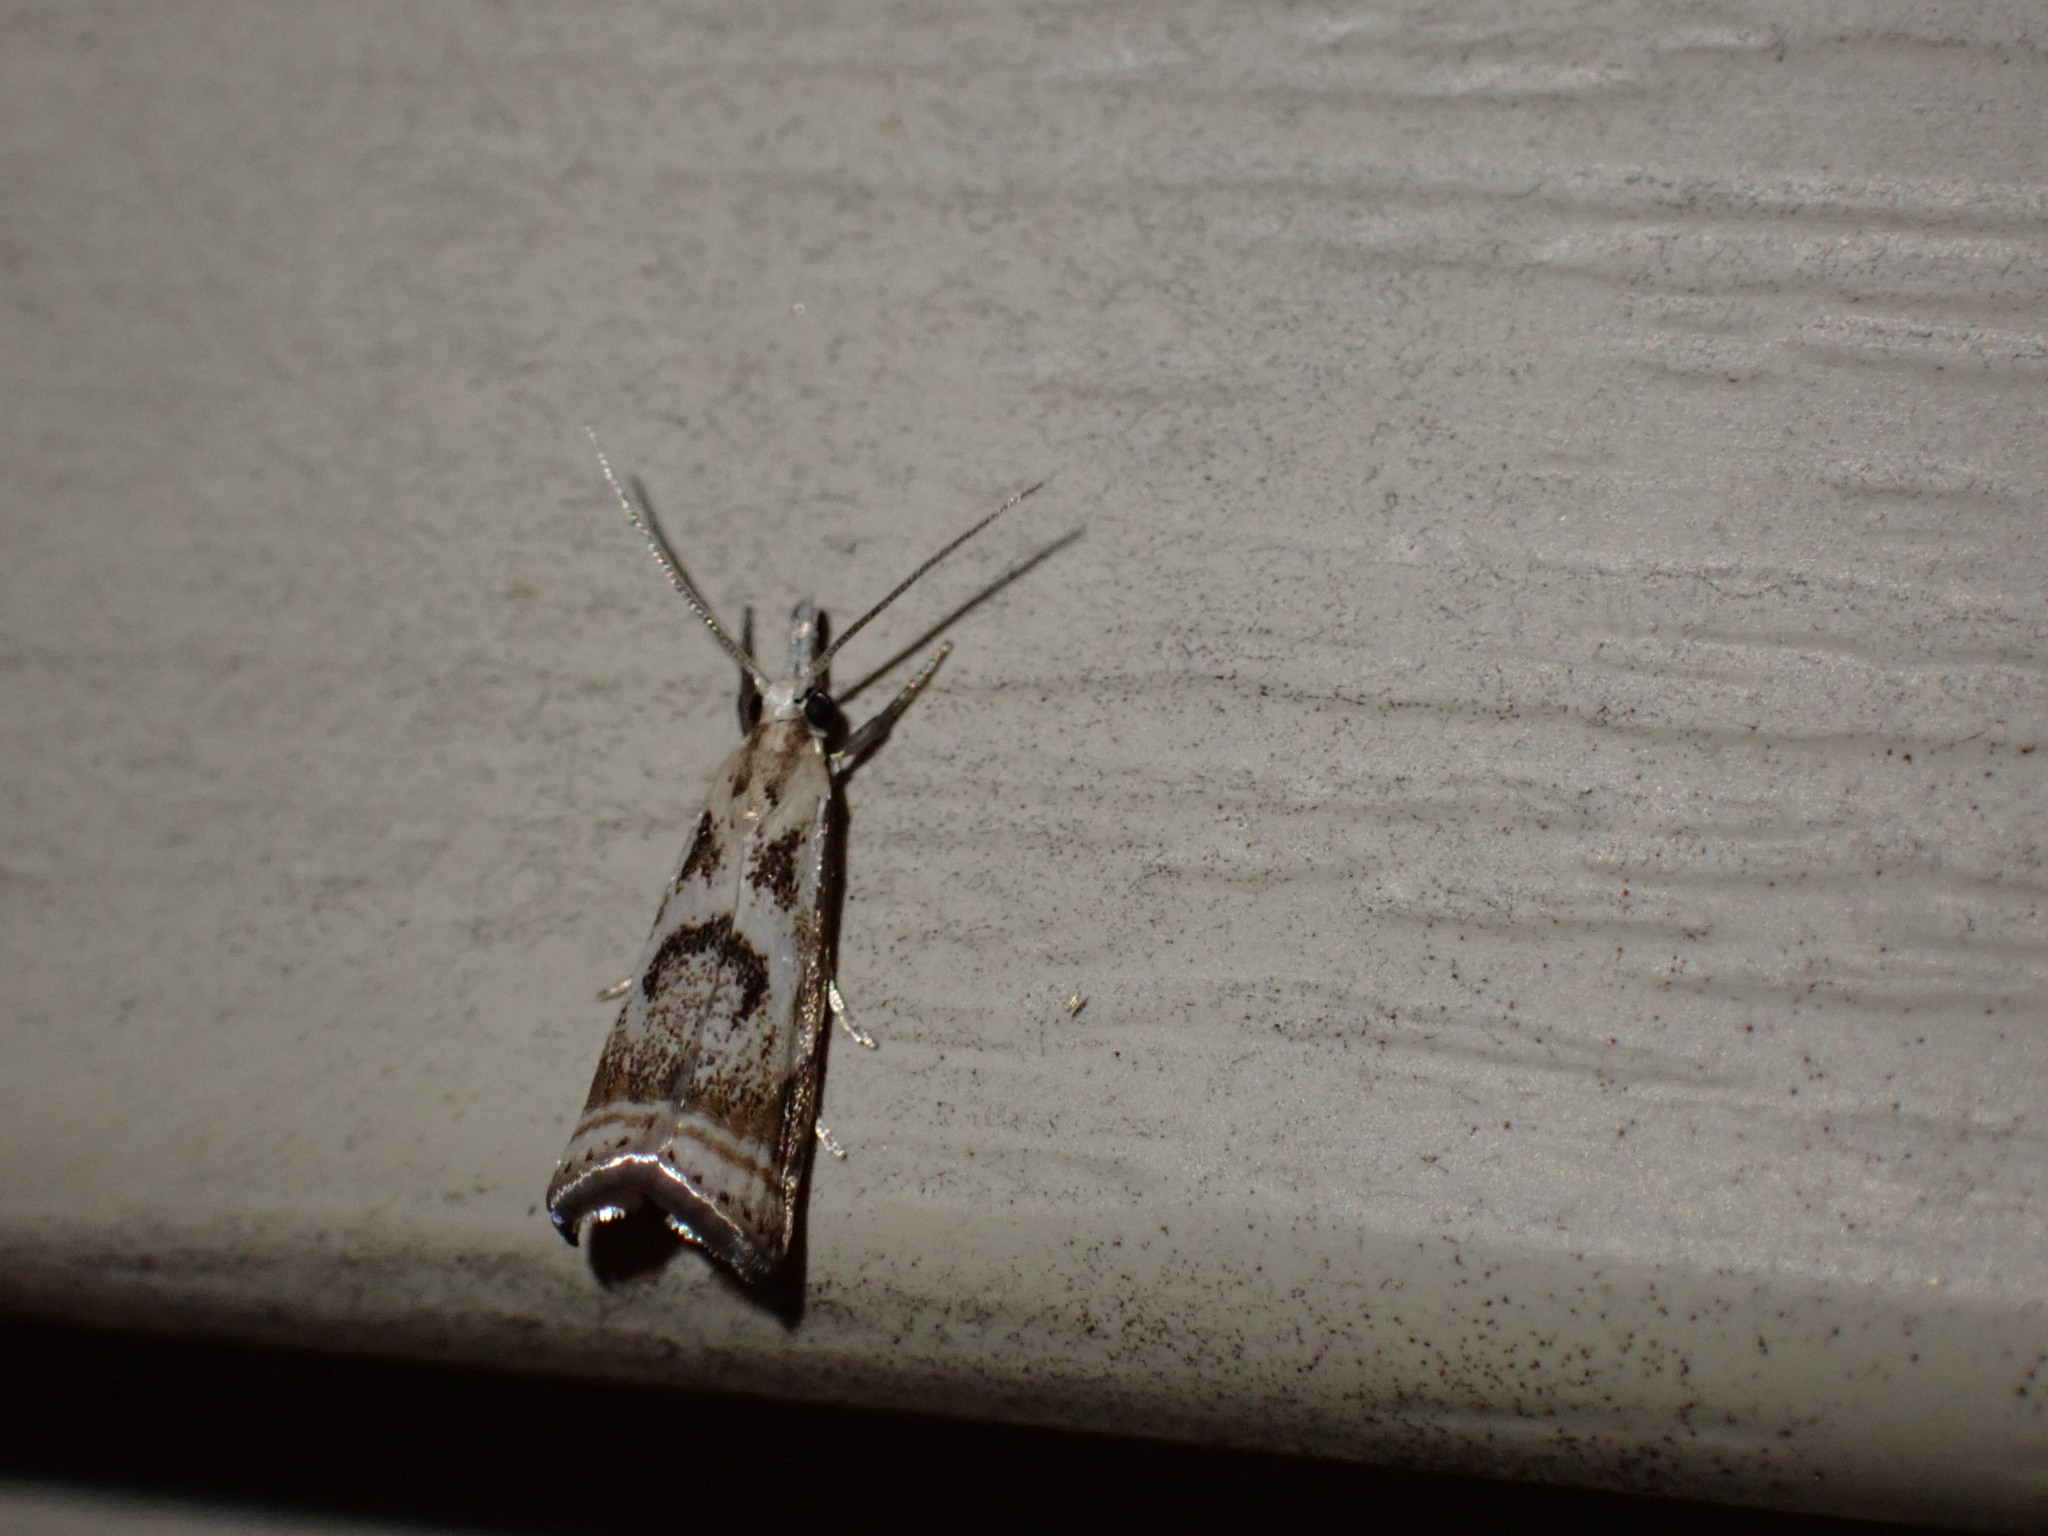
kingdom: Animalia
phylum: Arthropoda
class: Insecta
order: Lepidoptera
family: Crambidae
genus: Microcrambus
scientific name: Microcrambus elegans
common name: Elegant grass-veneer
